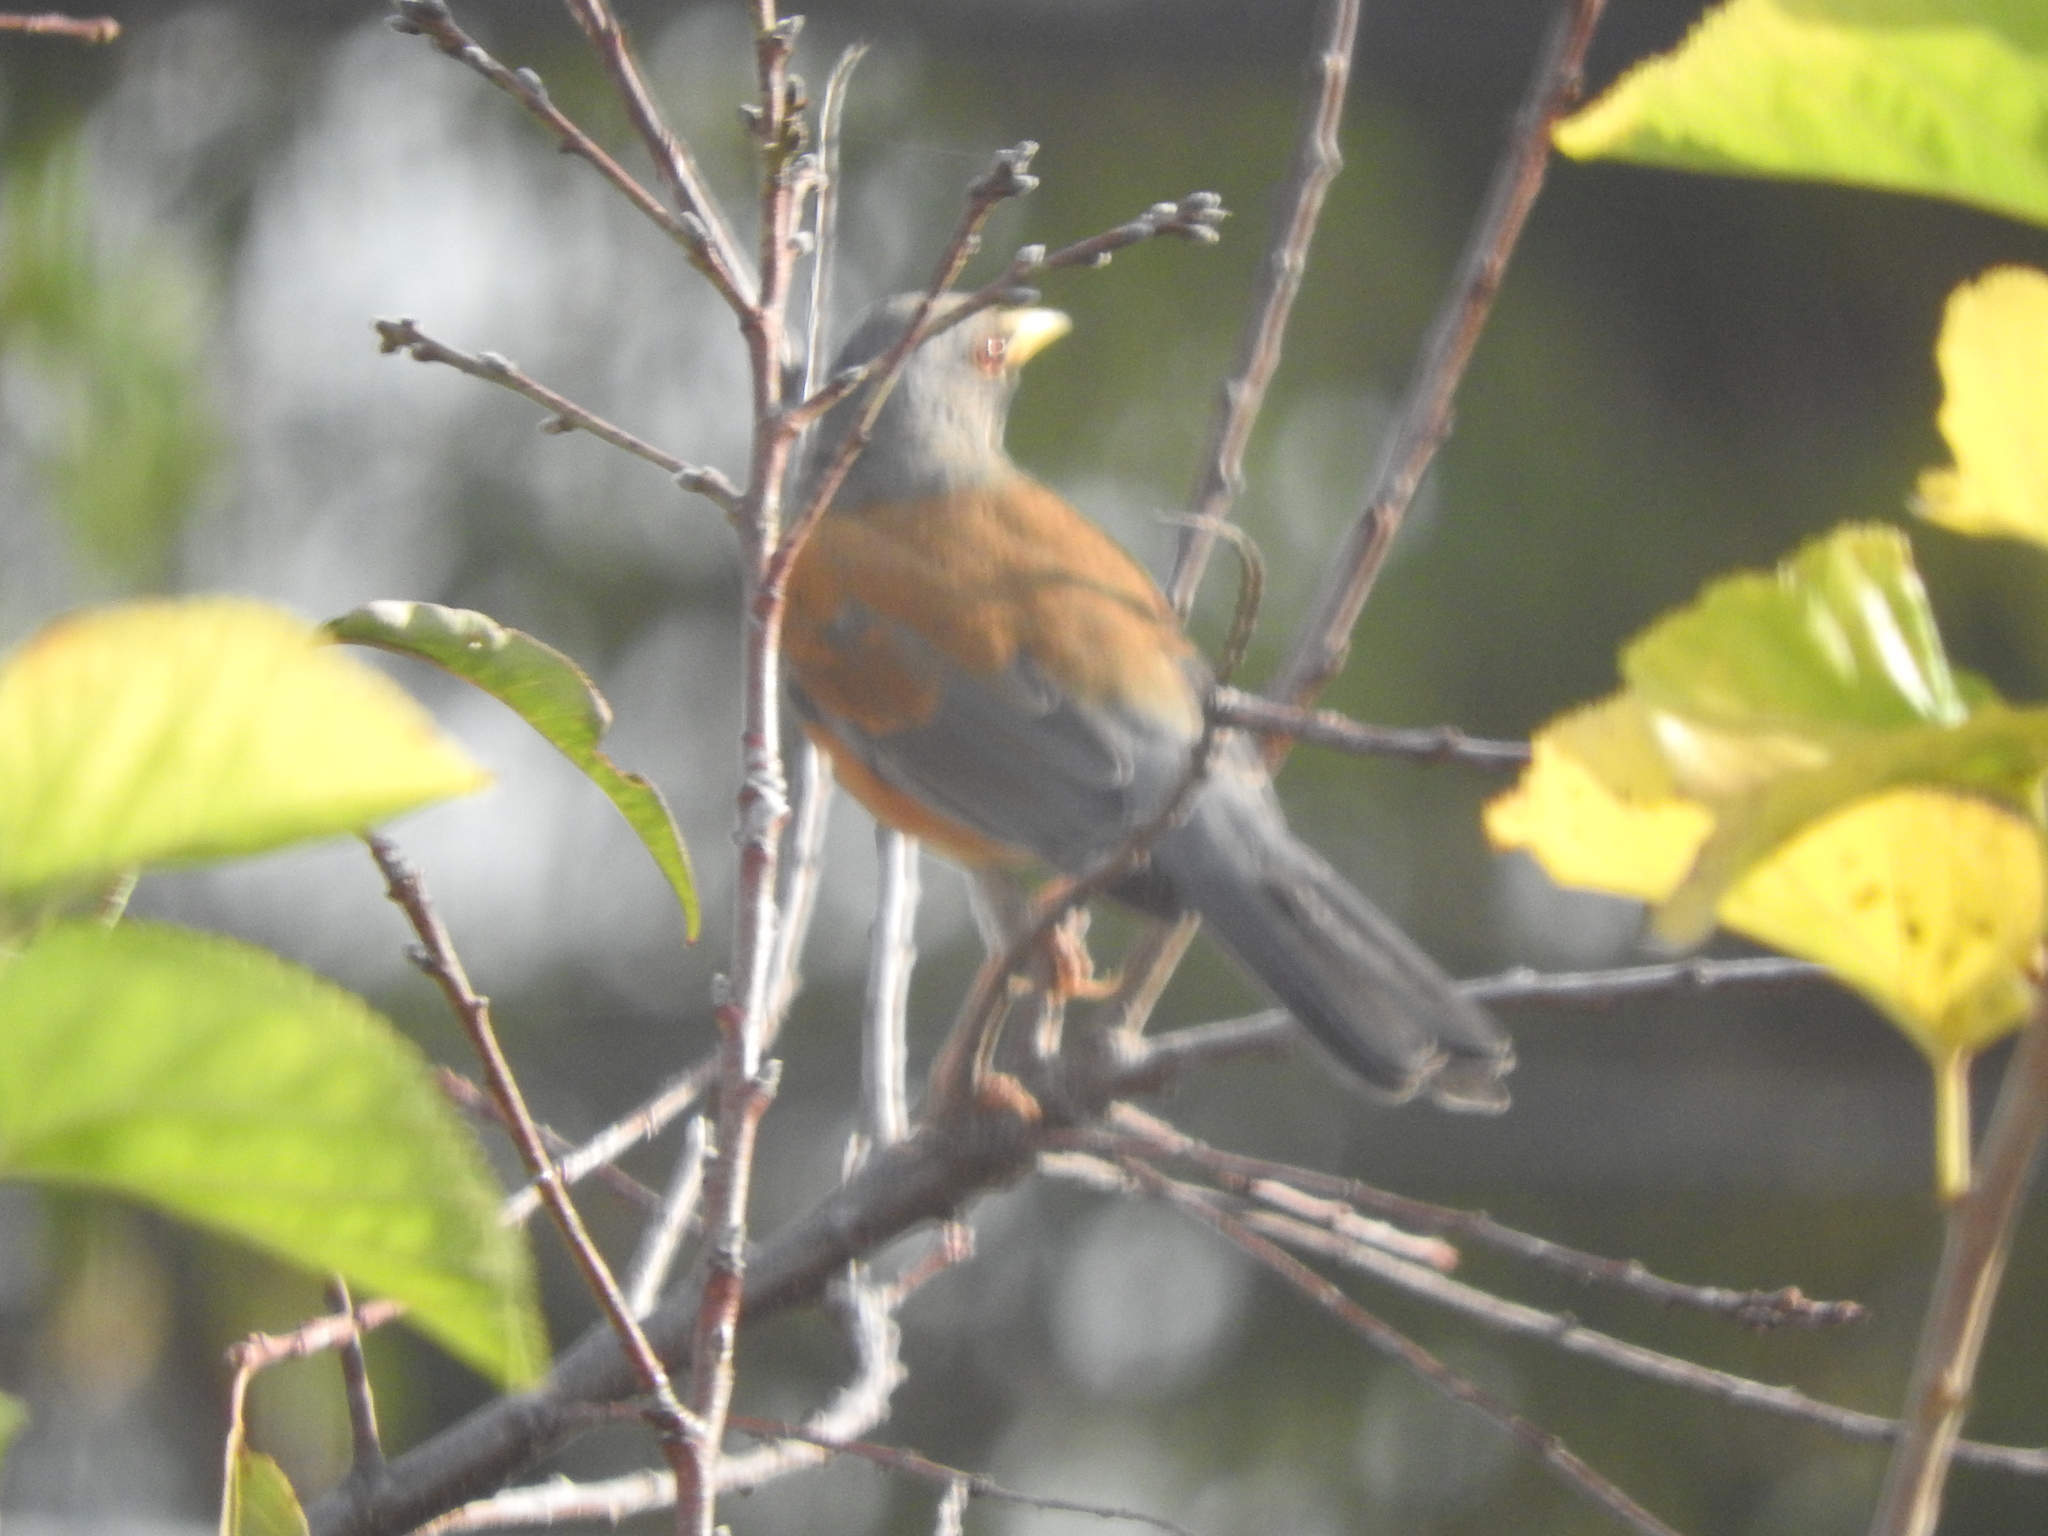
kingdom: Animalia
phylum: Chordata
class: Aves
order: Passeriformes
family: Turdidae
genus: Turdus
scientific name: Turdus rufopalliatus
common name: Rufous-backed robin
